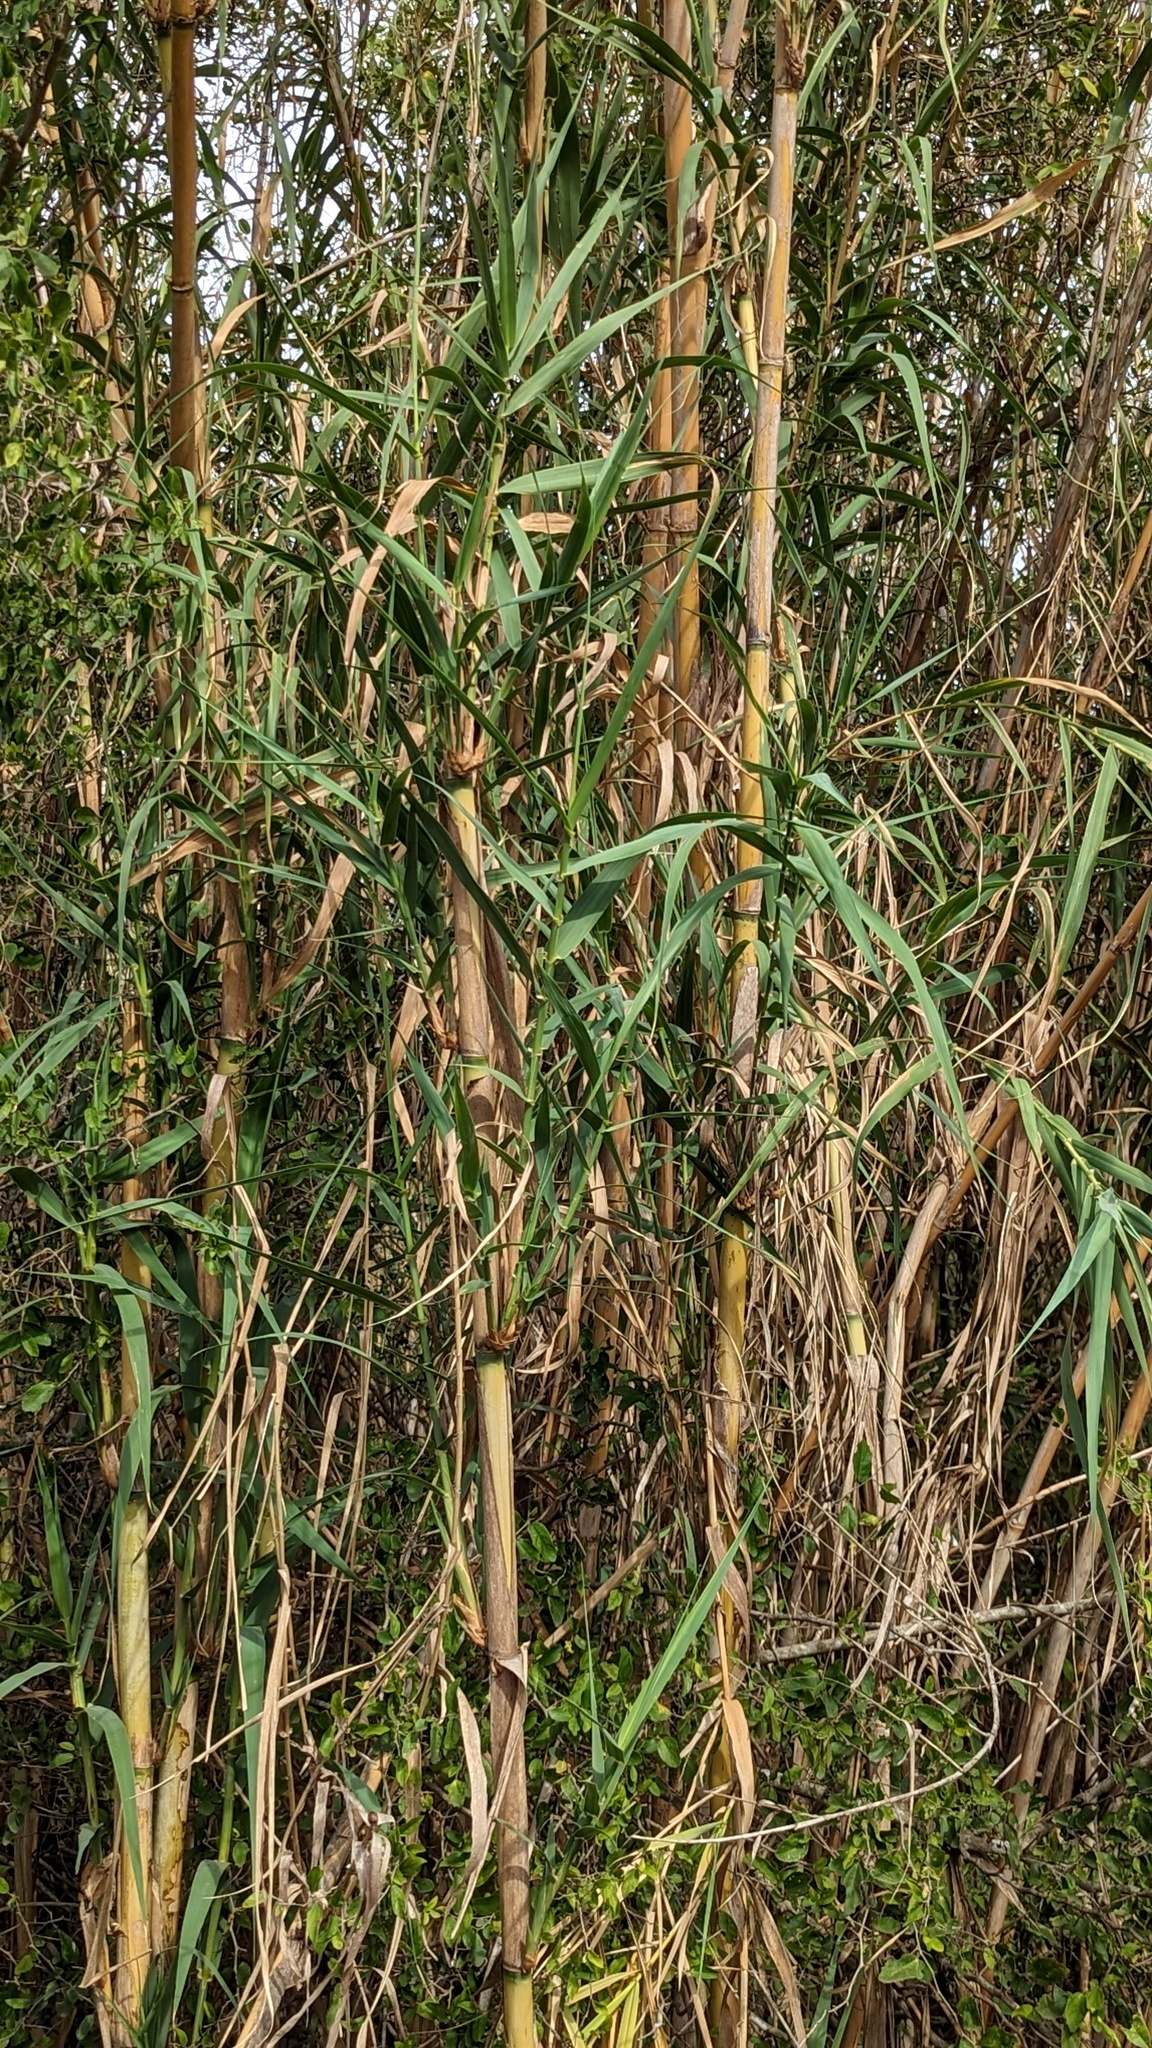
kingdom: Plantae
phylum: Tracheophyta
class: Liliopsida
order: Poales
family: Poaceae
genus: Arundo
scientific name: Arundo donax
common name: Giant reed
